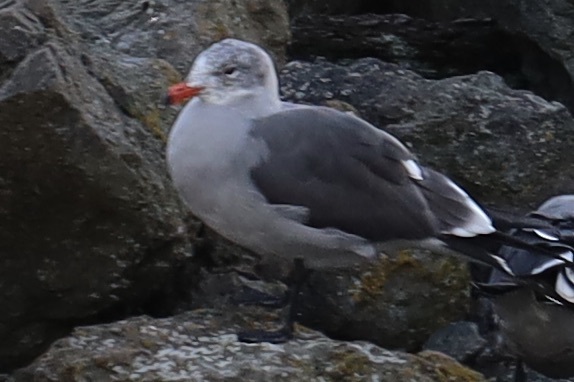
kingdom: Animalia
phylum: Chordata
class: Aves
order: Charadriiformes
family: Laridae
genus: Larus
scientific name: Larus heermanni
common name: Heermann's gull
